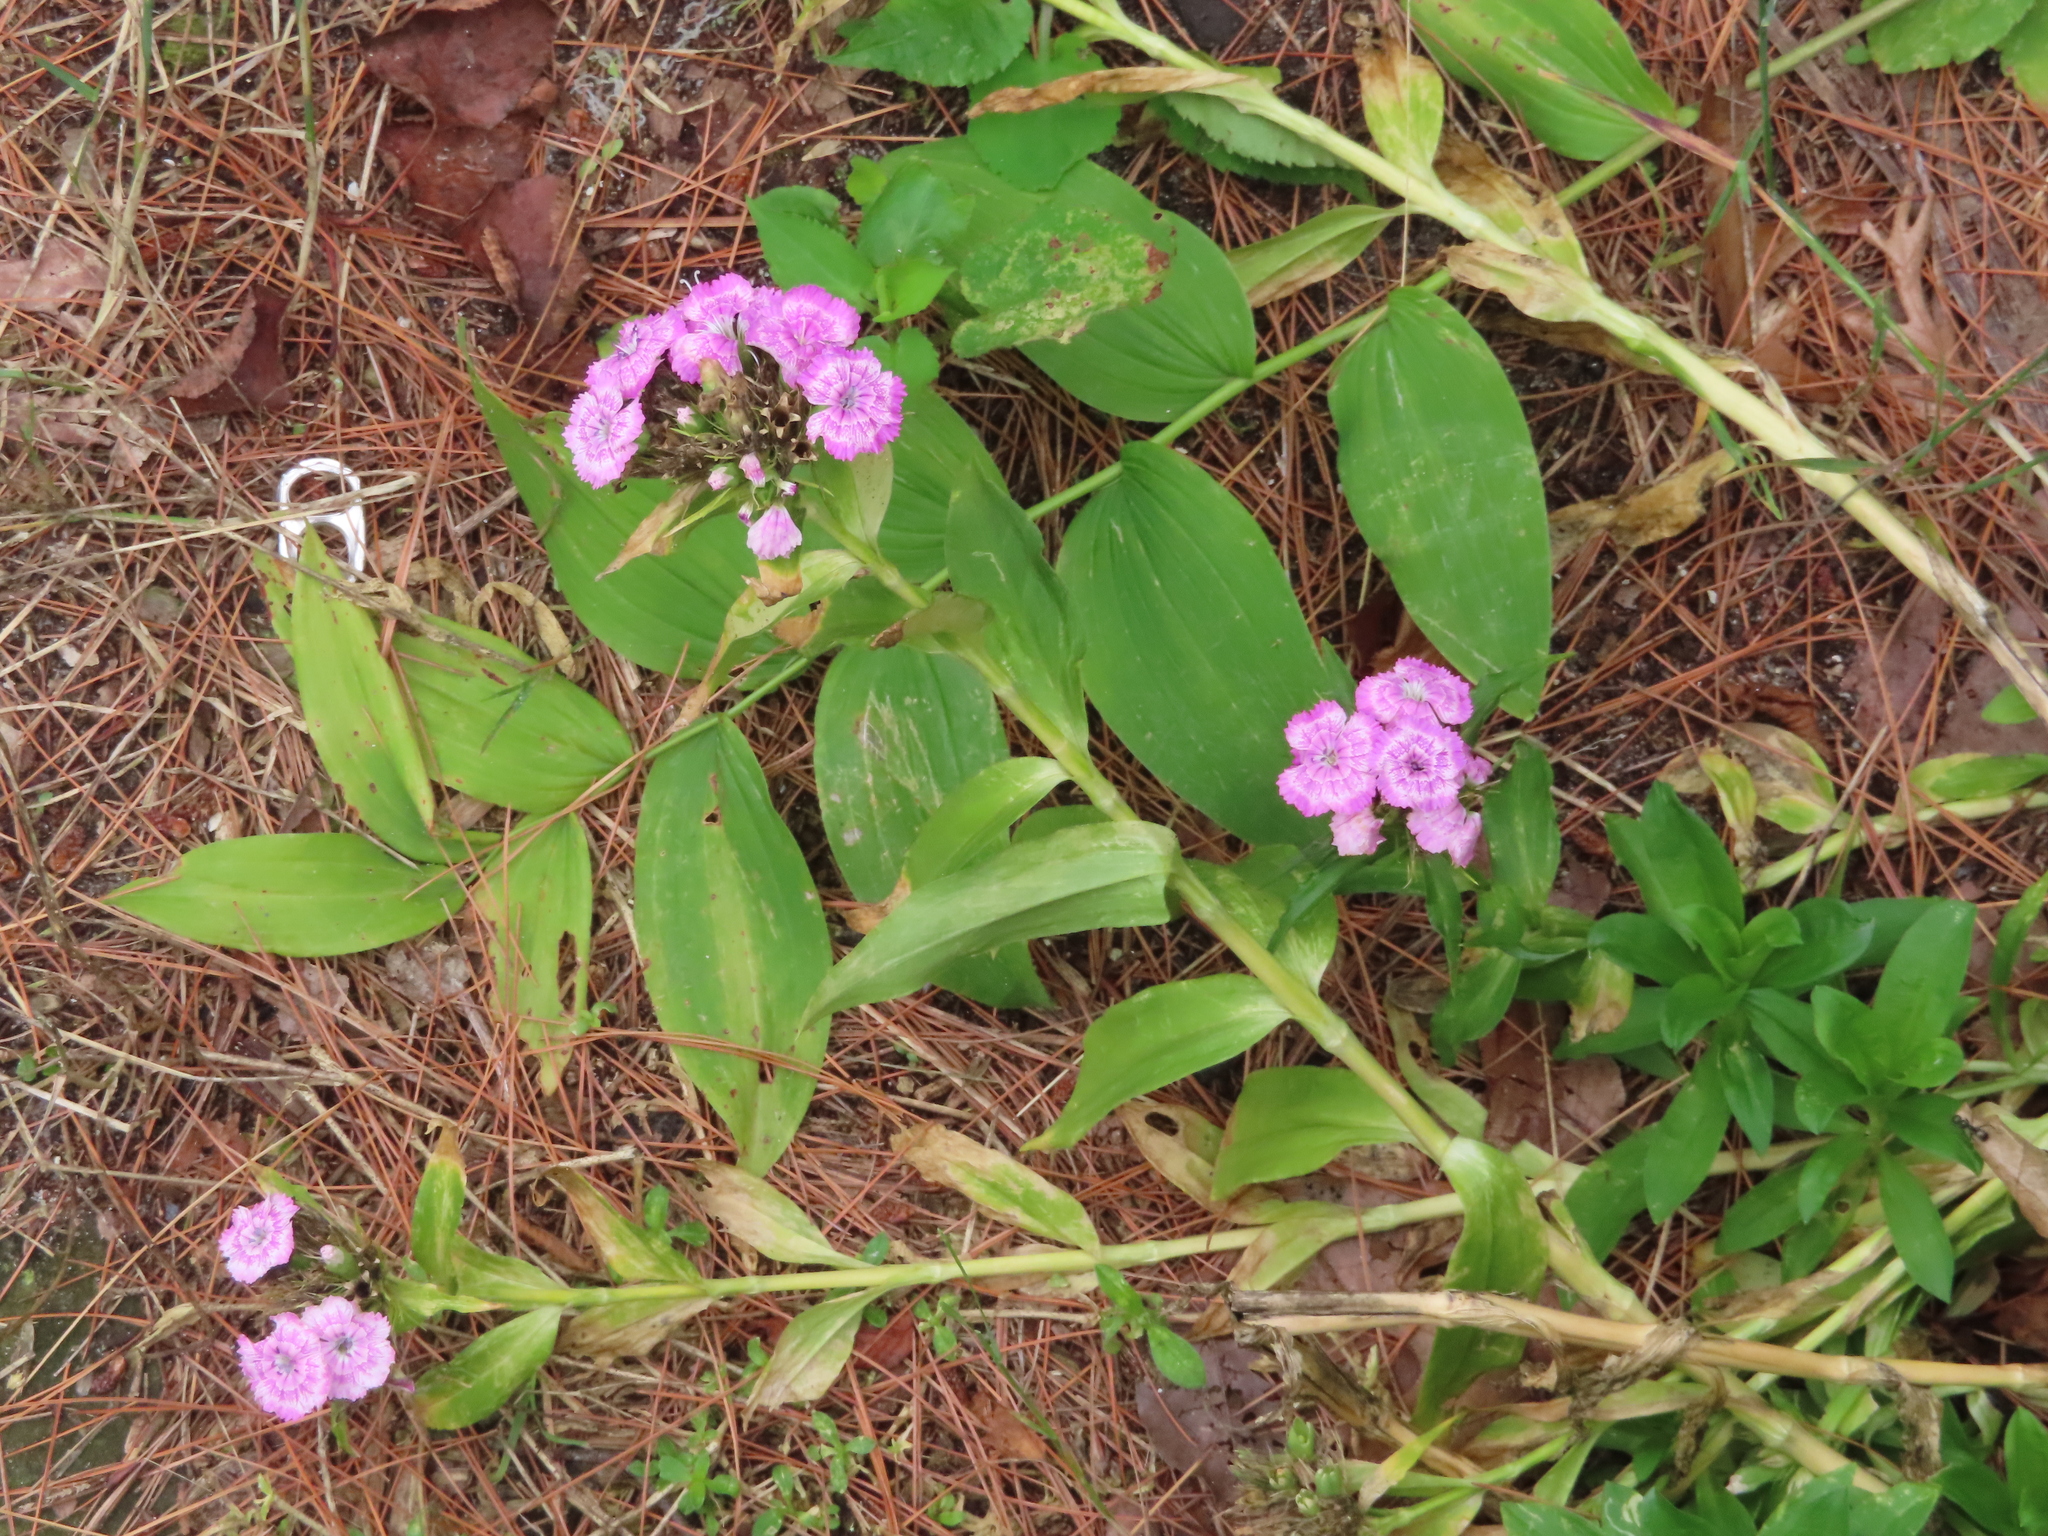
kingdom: Plantae
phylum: Tracheophyta
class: Magnoliopsida
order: Caryophyllales
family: Caryophyllaceae
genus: Dianthus
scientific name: Dianthus barbatus
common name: Sweet-william
